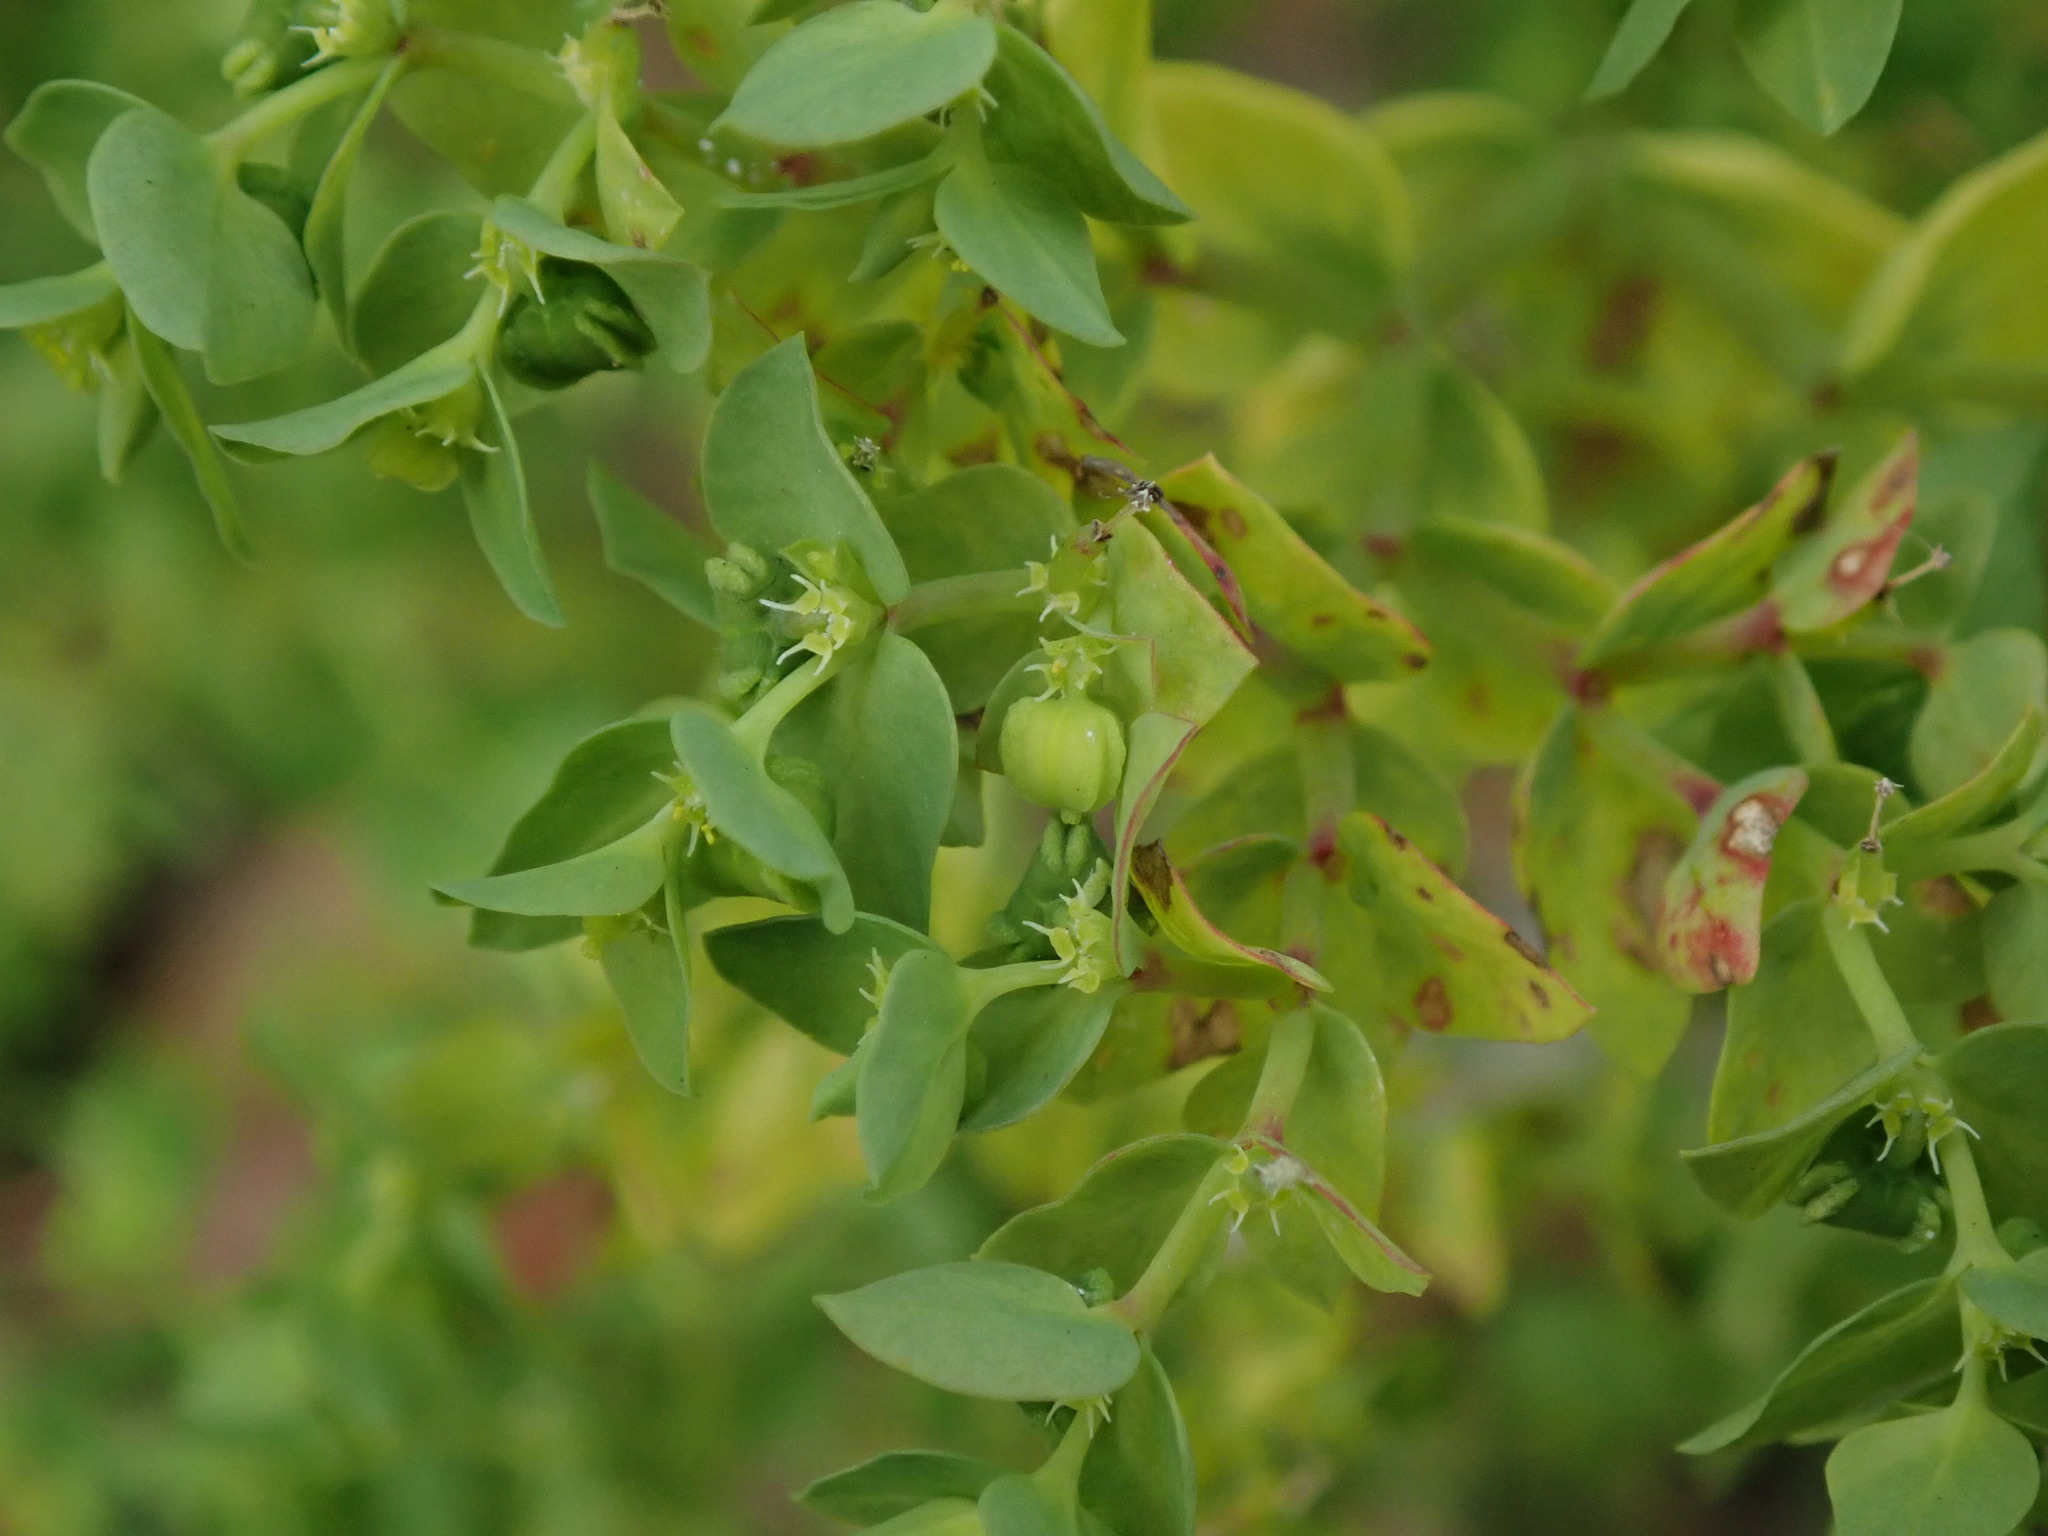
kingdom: Plantae
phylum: Tracheophyta
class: Magnoliopsida
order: Malpighiales
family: Euphorbiaceae
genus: Euphorbia
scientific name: Euphorbia peplus
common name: Petty spurge
